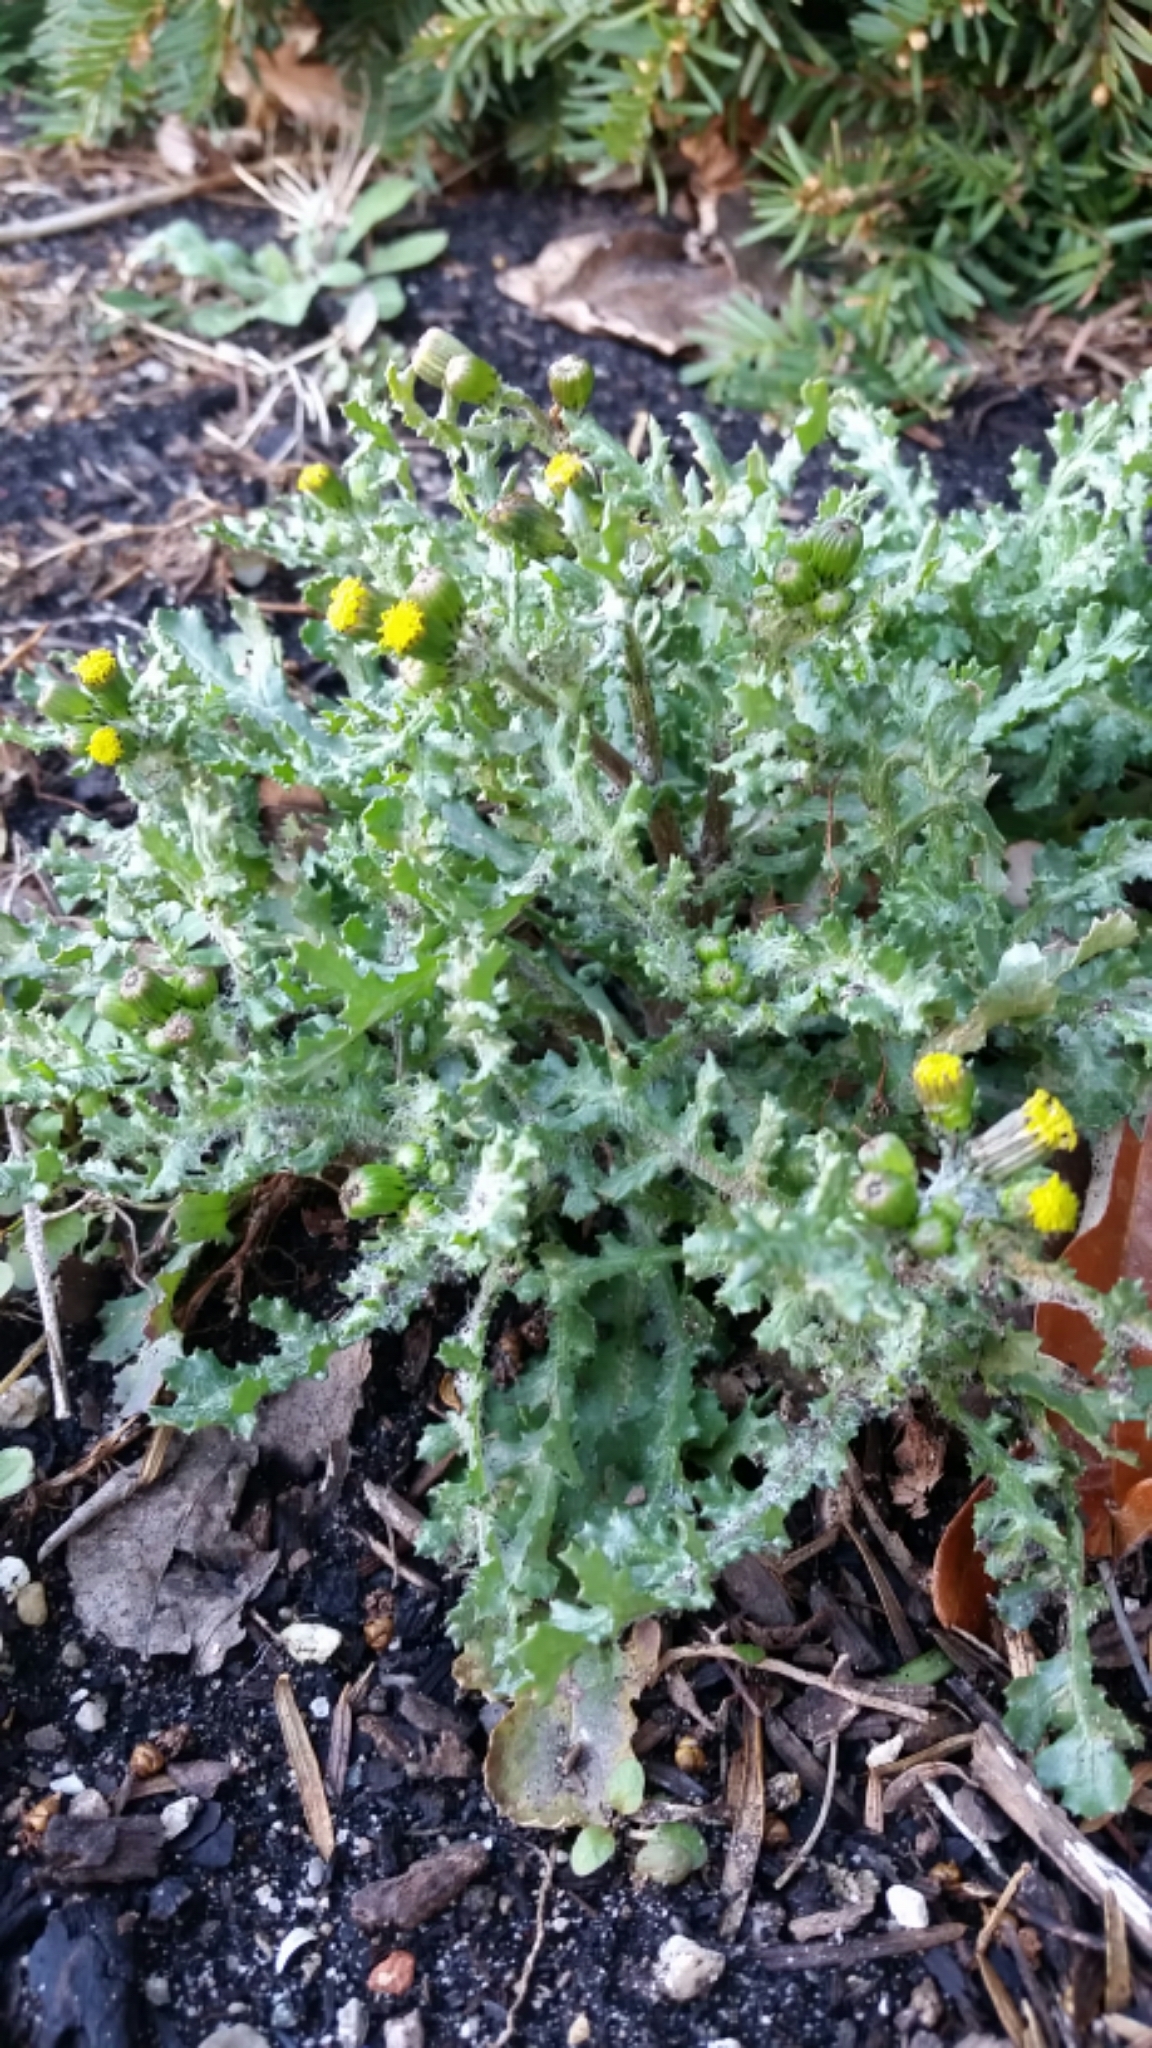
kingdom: Plantae
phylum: Tracheophyta
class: Magnoliopsida
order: Asterales
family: Asteraceae
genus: Senecio
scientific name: Senecio vulgaris
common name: Old-man-in-the-spring
